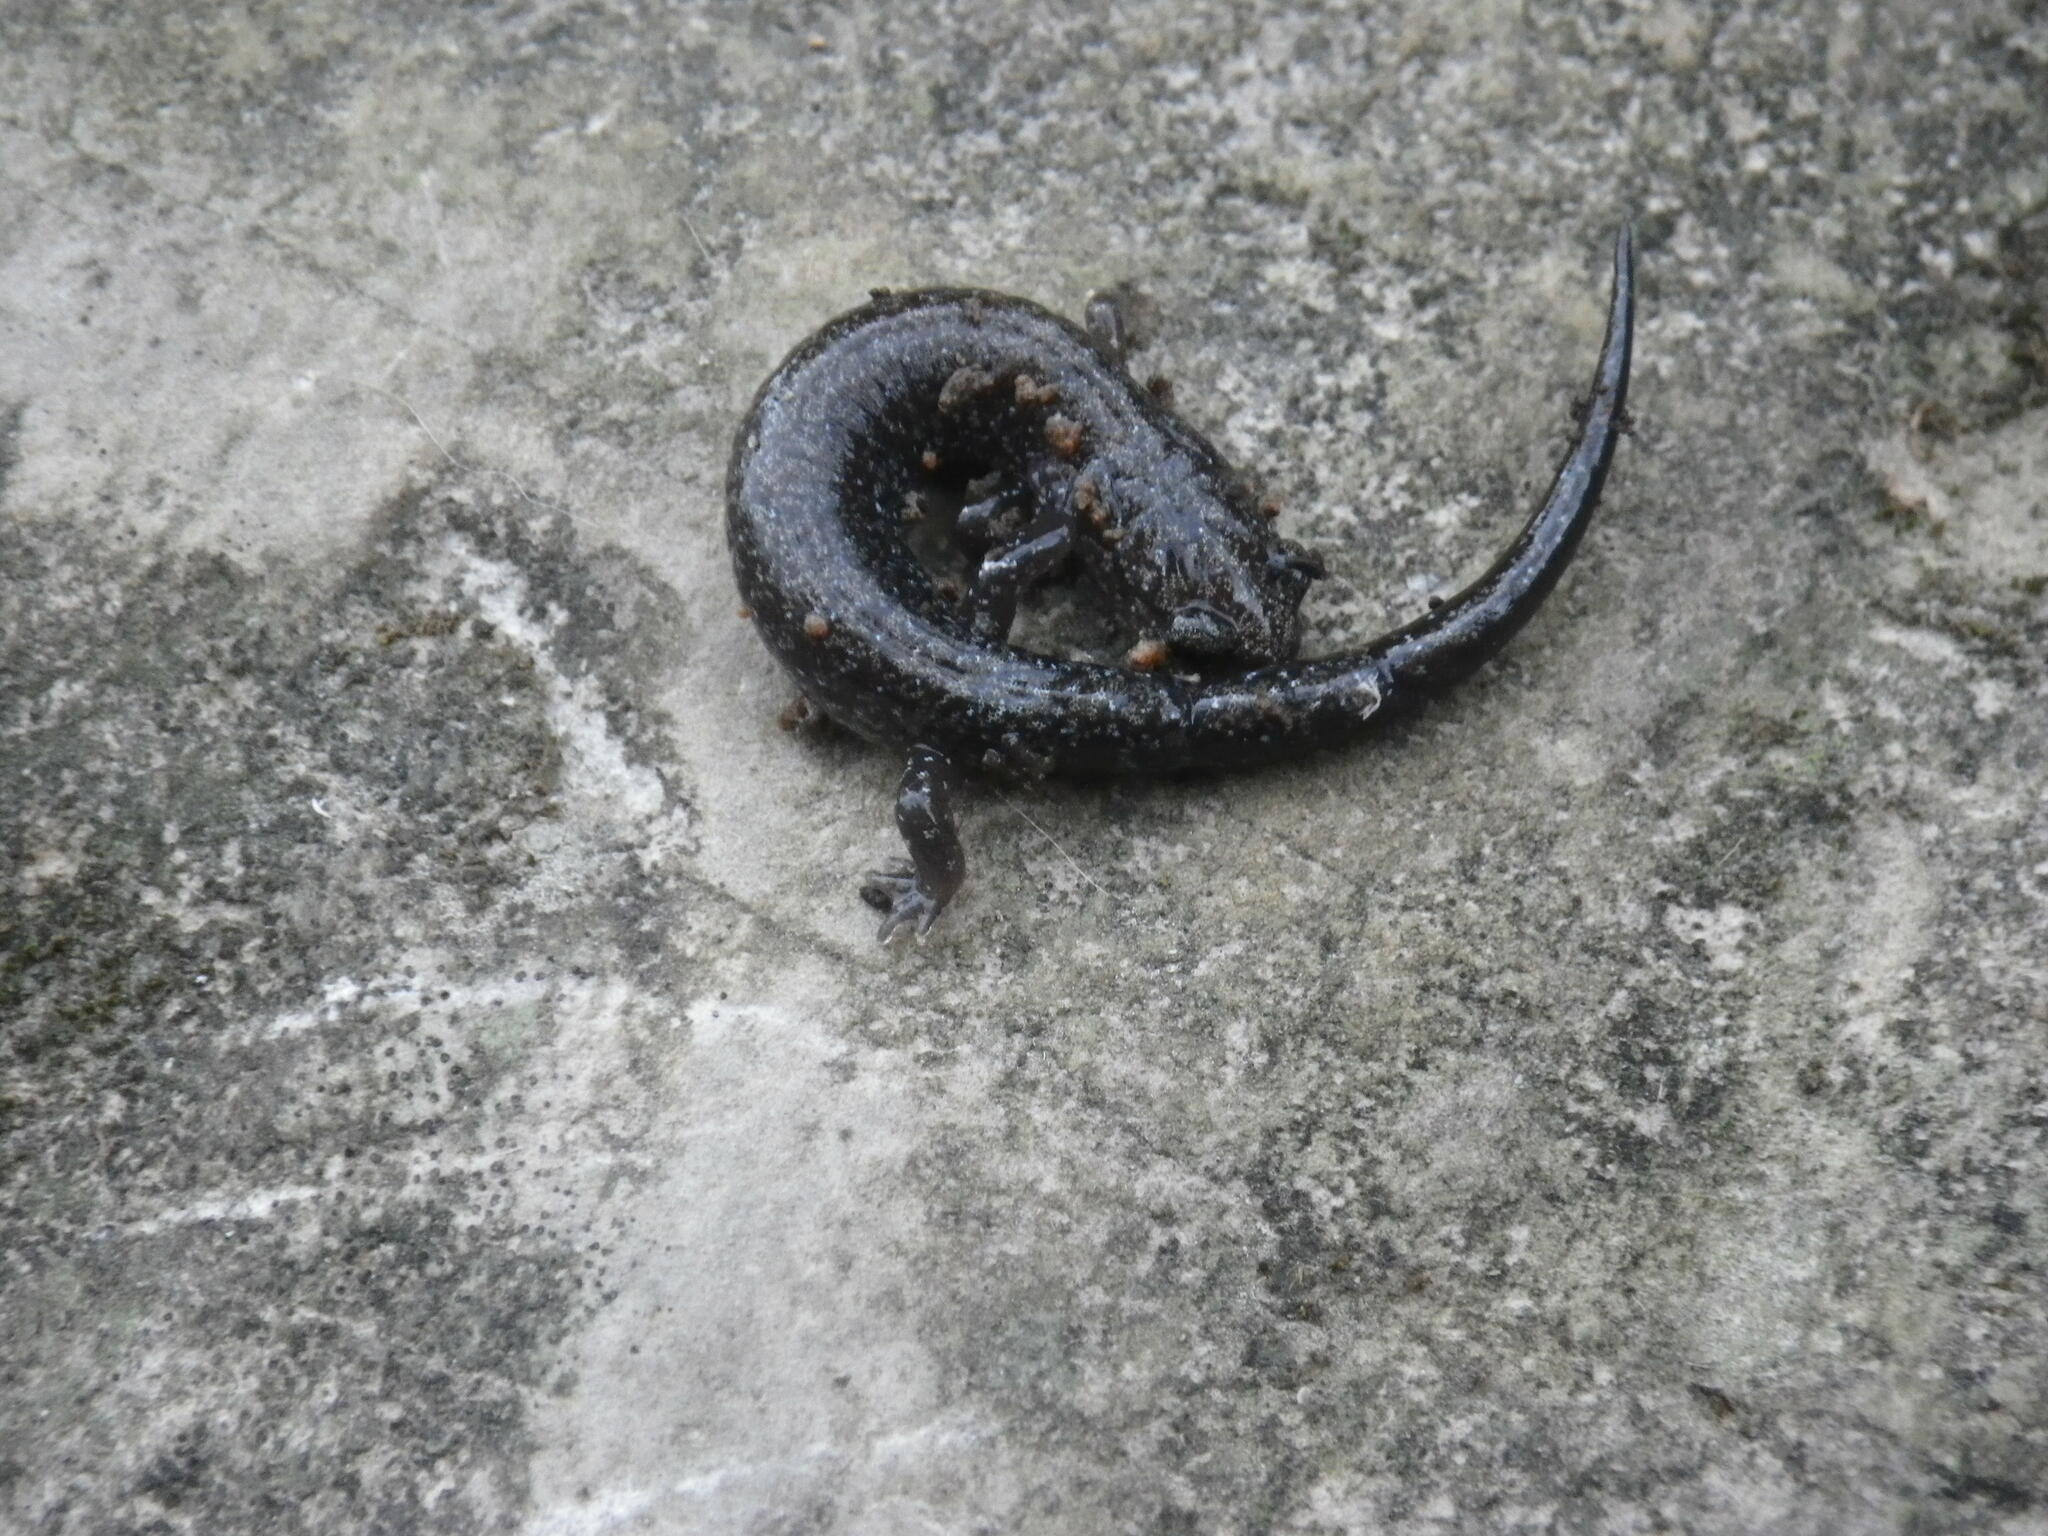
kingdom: Animalia
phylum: Chordata
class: Amphibia
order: Caudata
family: Plethodontidae
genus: Plethodon
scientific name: Plethodon dorsalis
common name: Northern zigzag salamander
